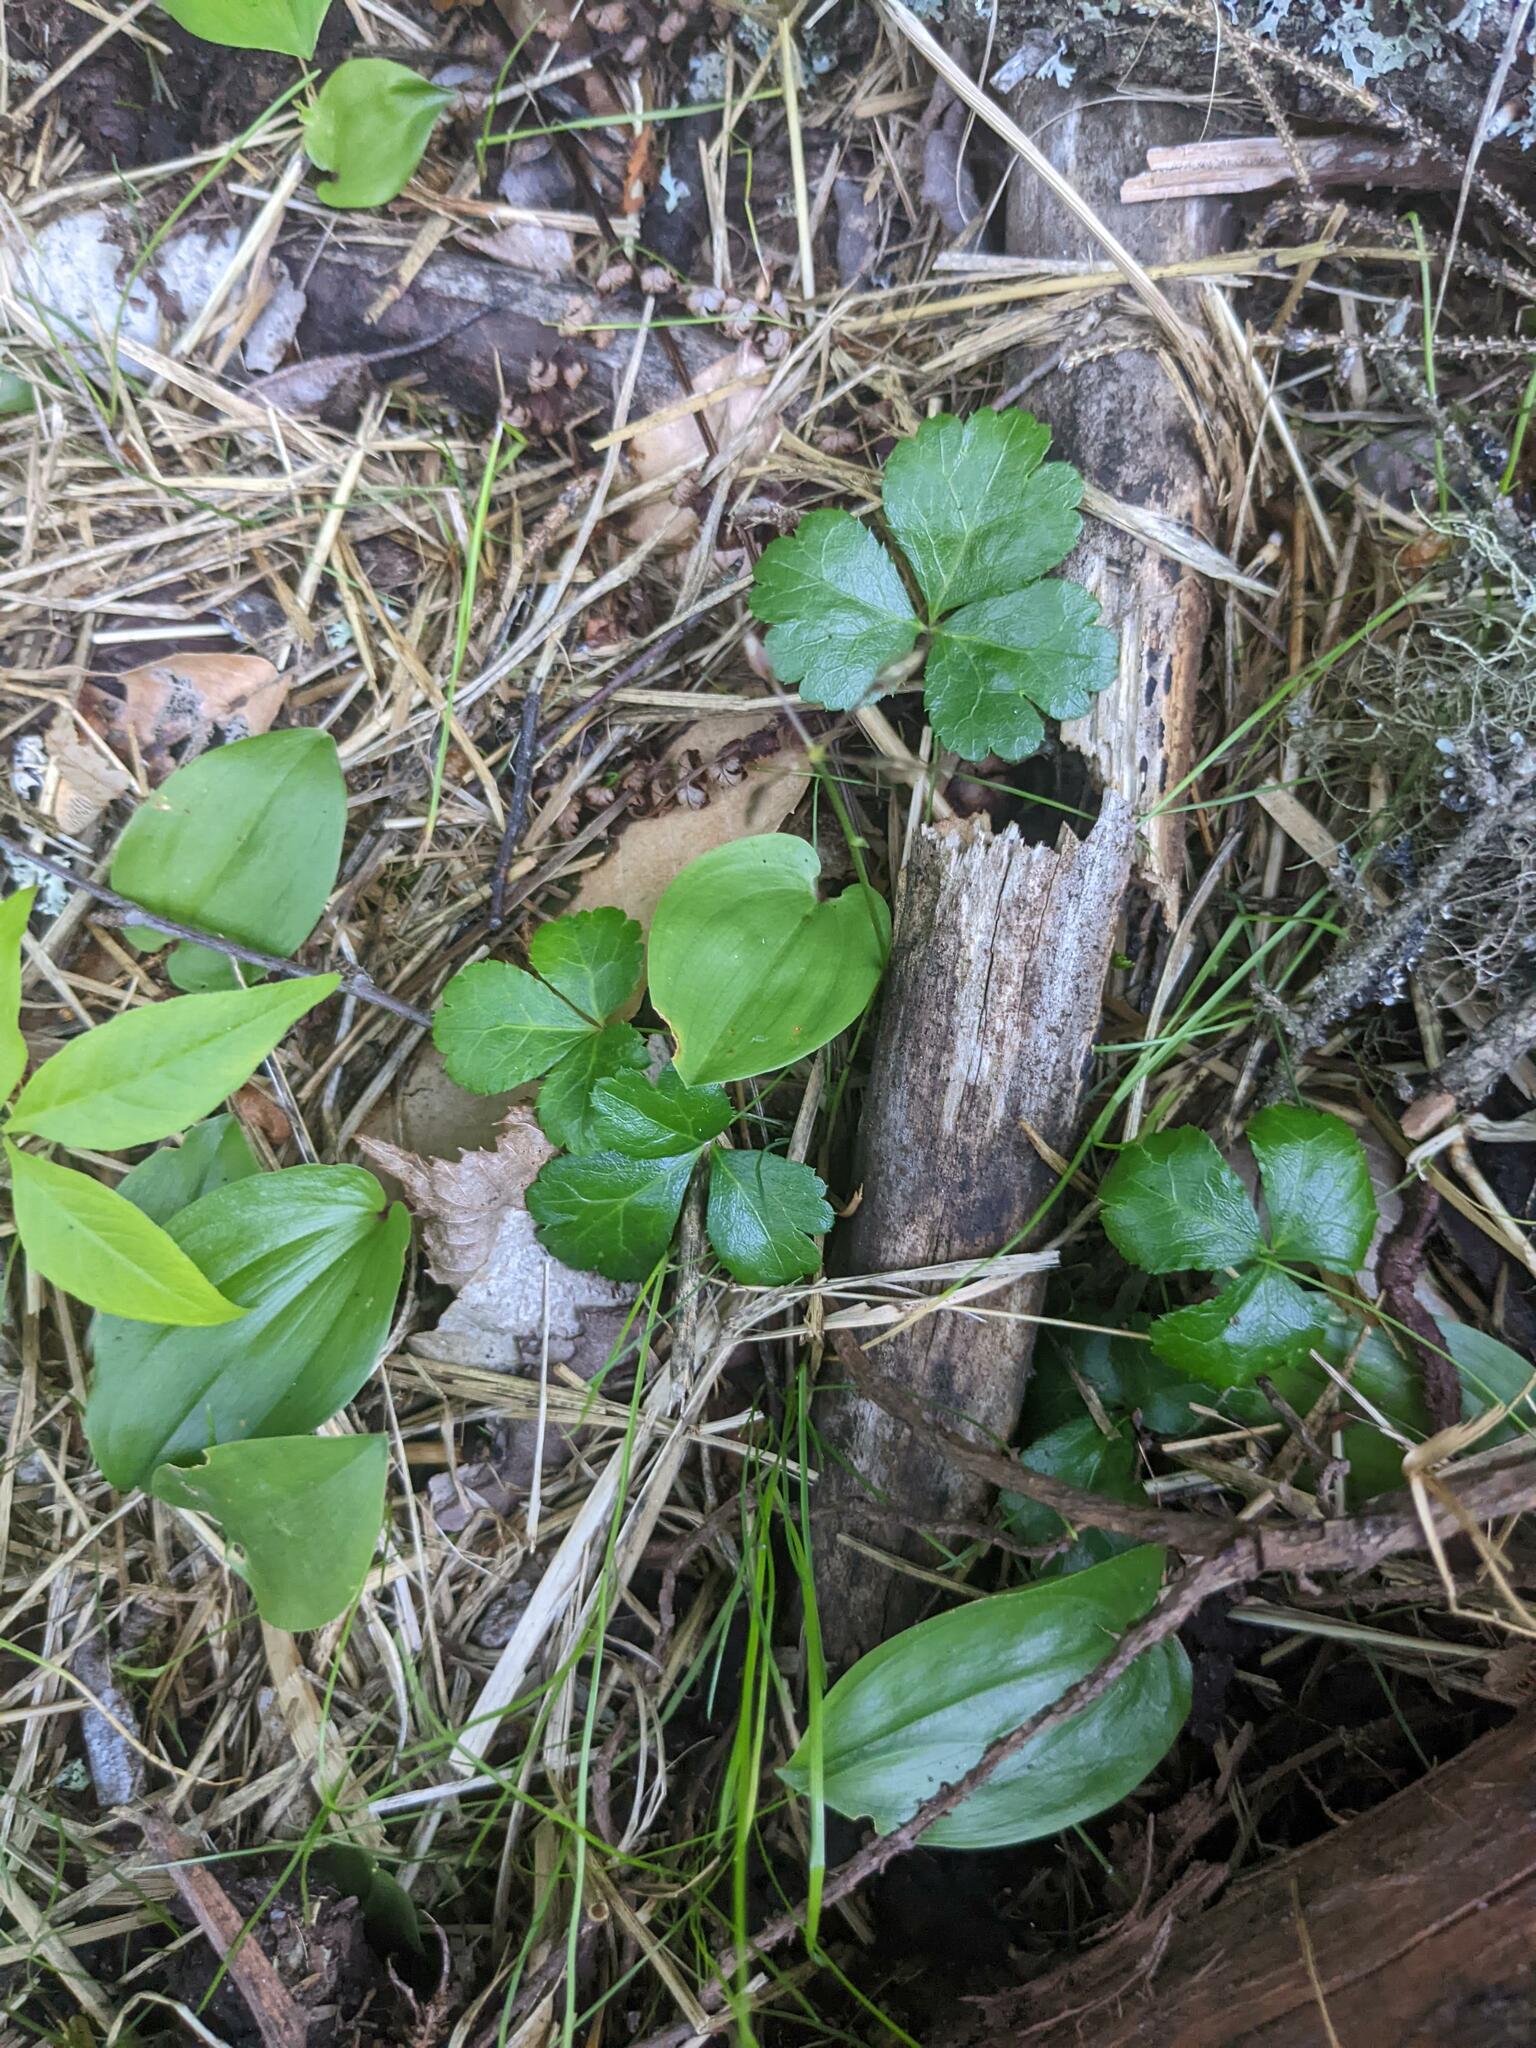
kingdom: Plantae
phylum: Tracheophyta
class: Magnoliopsida
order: Ranunculales
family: Ranunculaceae
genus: Coptis
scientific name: Coptis trifolia
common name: Canker-root
